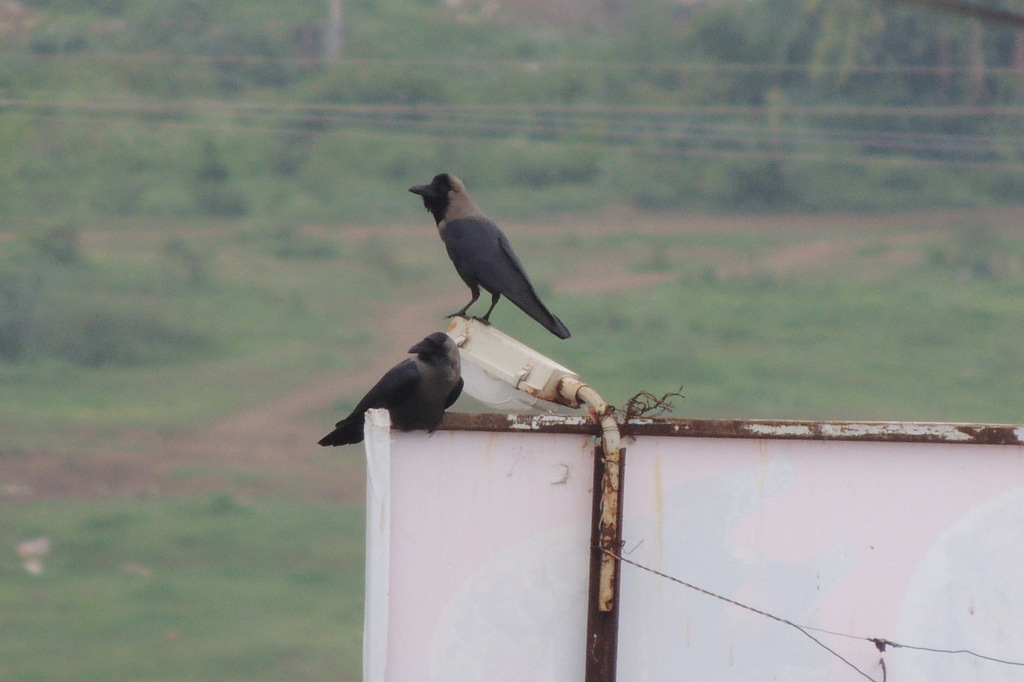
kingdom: Animalia
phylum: Chordata
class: Aves
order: Passeriformes
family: Corvidae
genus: Corvus
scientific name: Corvus splendens
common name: House crow
